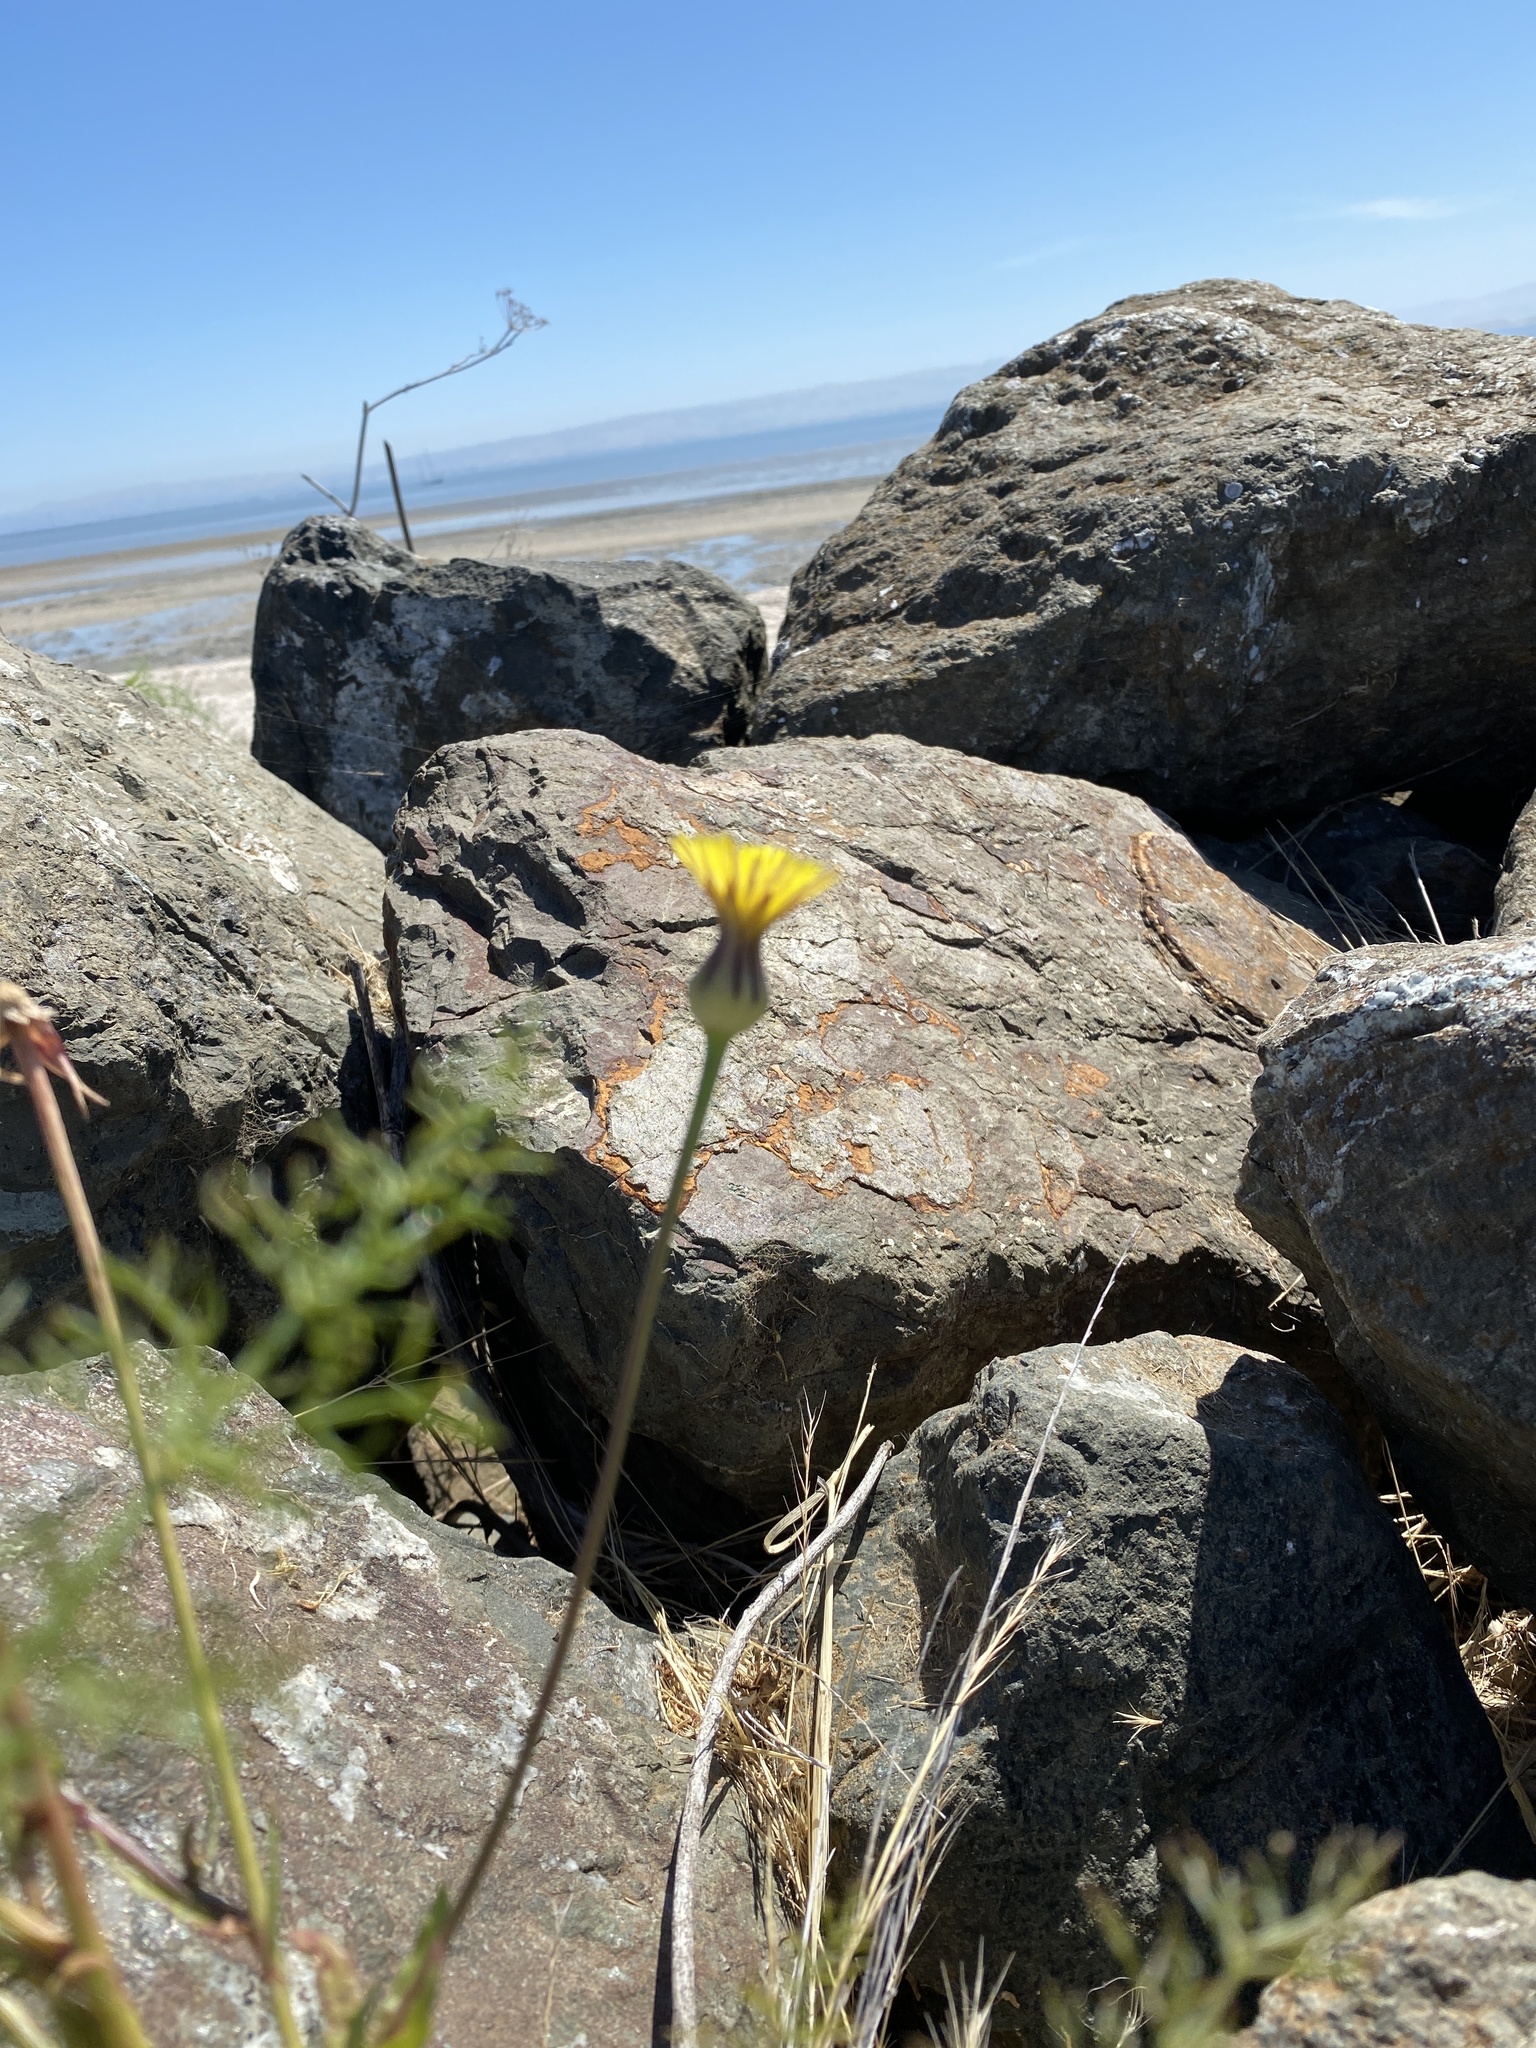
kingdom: Plantae
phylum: Tracheophyta
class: Magnoliopsida
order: Asterales
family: Asteraceae
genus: Urospermum
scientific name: Urospermum picroides
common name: False hawkbit
